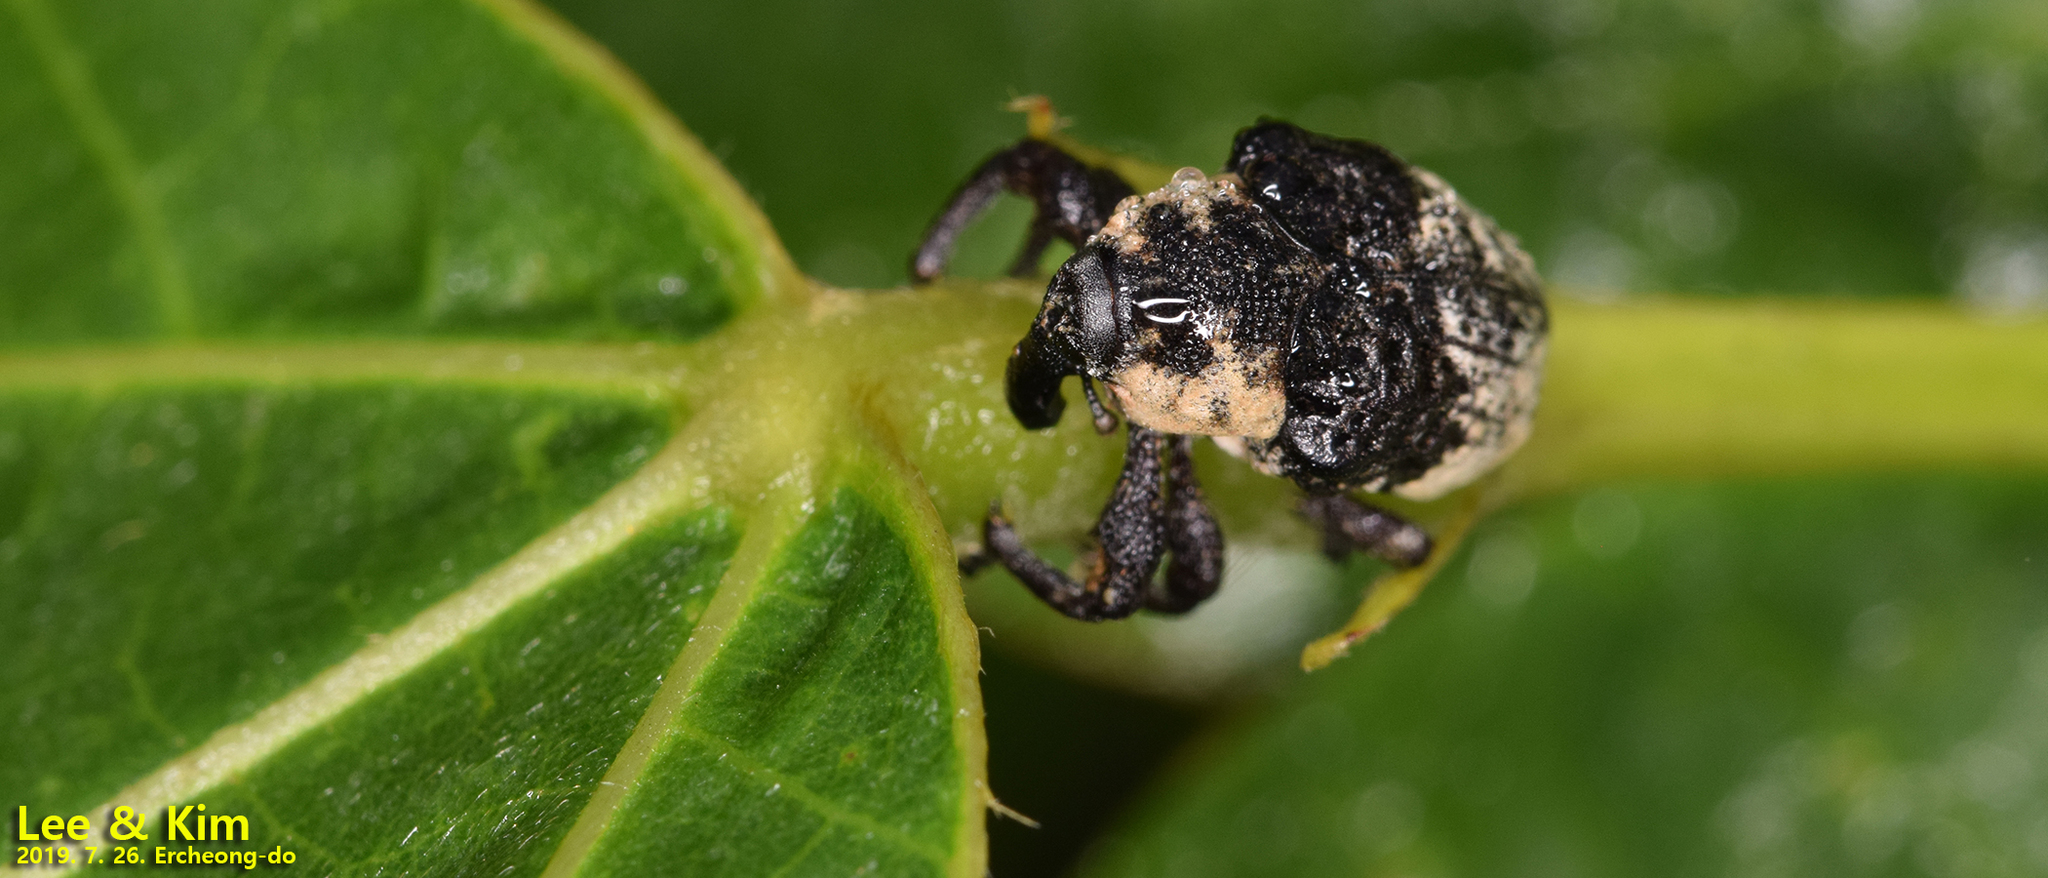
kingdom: Animalia
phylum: Arthropoda
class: Insecta
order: Coleoptera
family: Curculionidae
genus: Alcides
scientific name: Alcides trifidus
